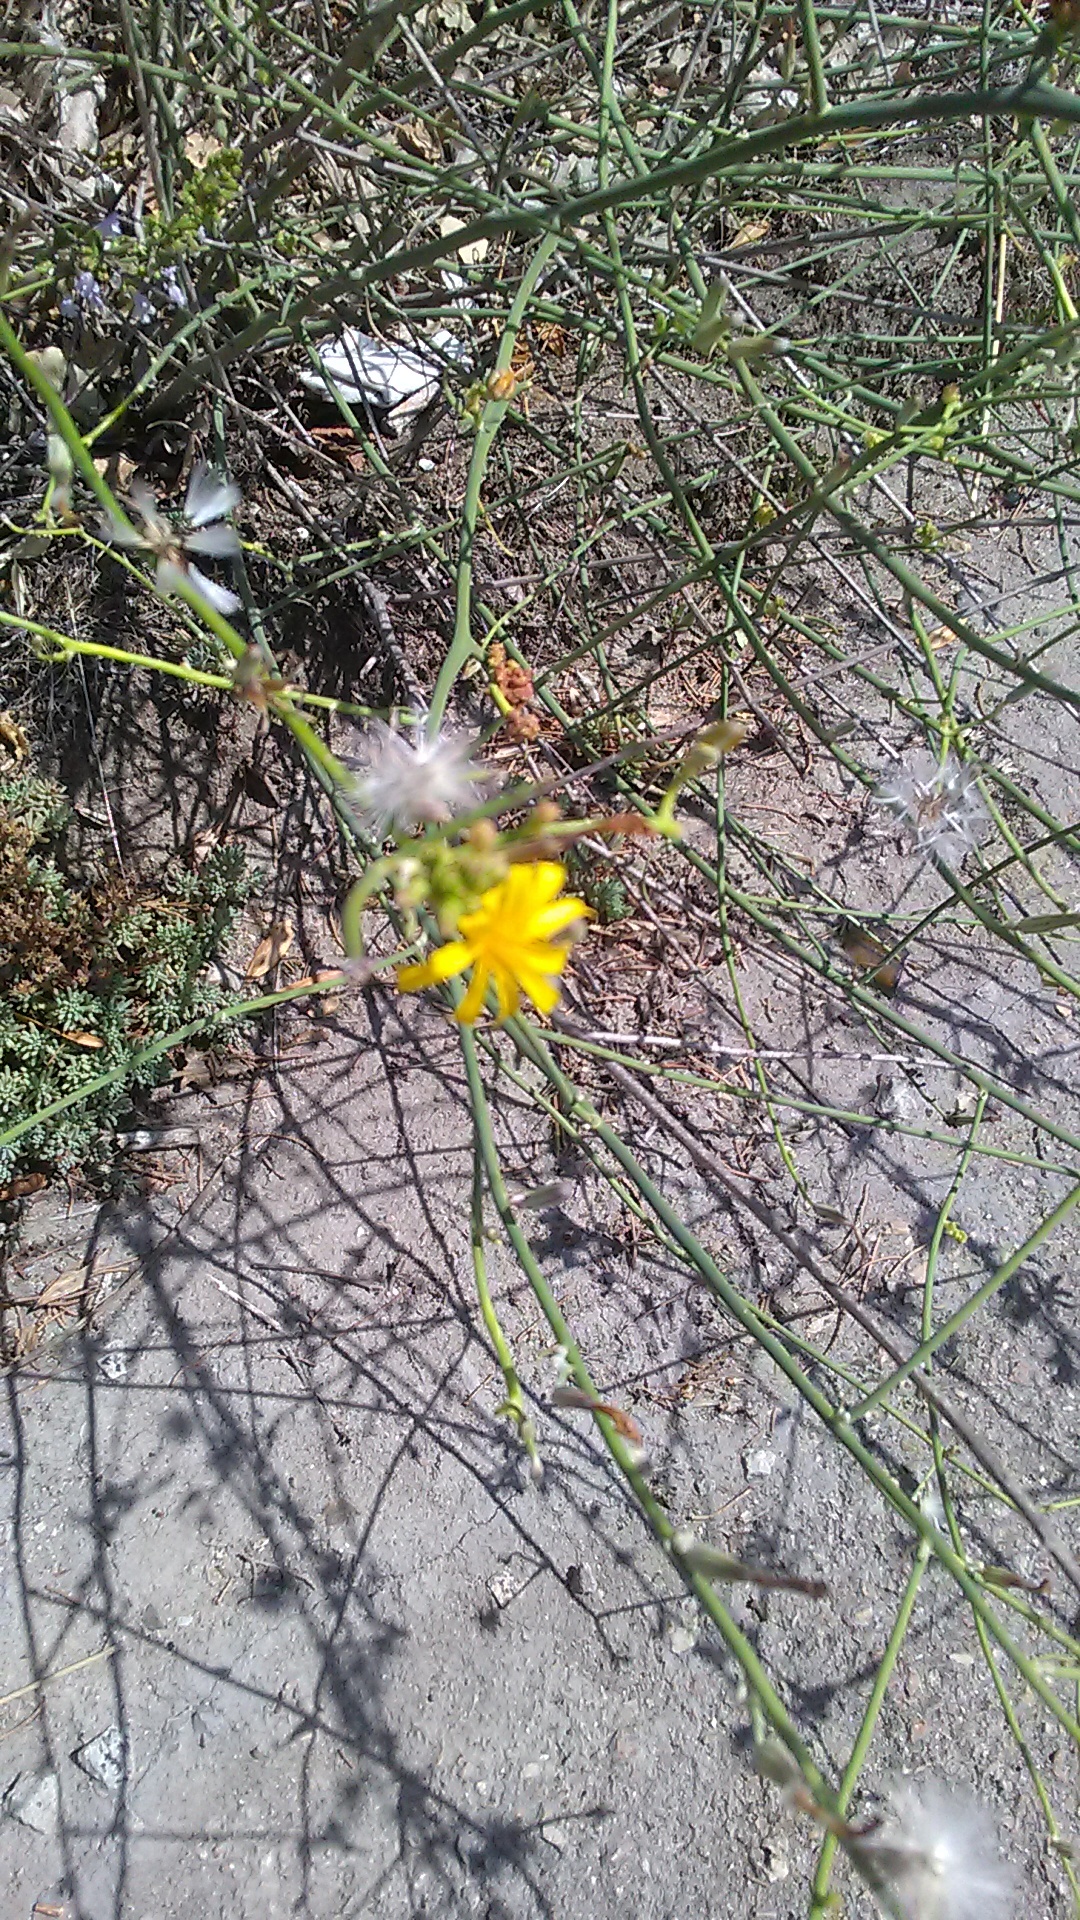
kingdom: Plantae
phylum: Tracheophyta
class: Magnoliopsida
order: Asterales
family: Asteraceae
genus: Chondrilla
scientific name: Chondrilla juncea
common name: Skeleton weed
